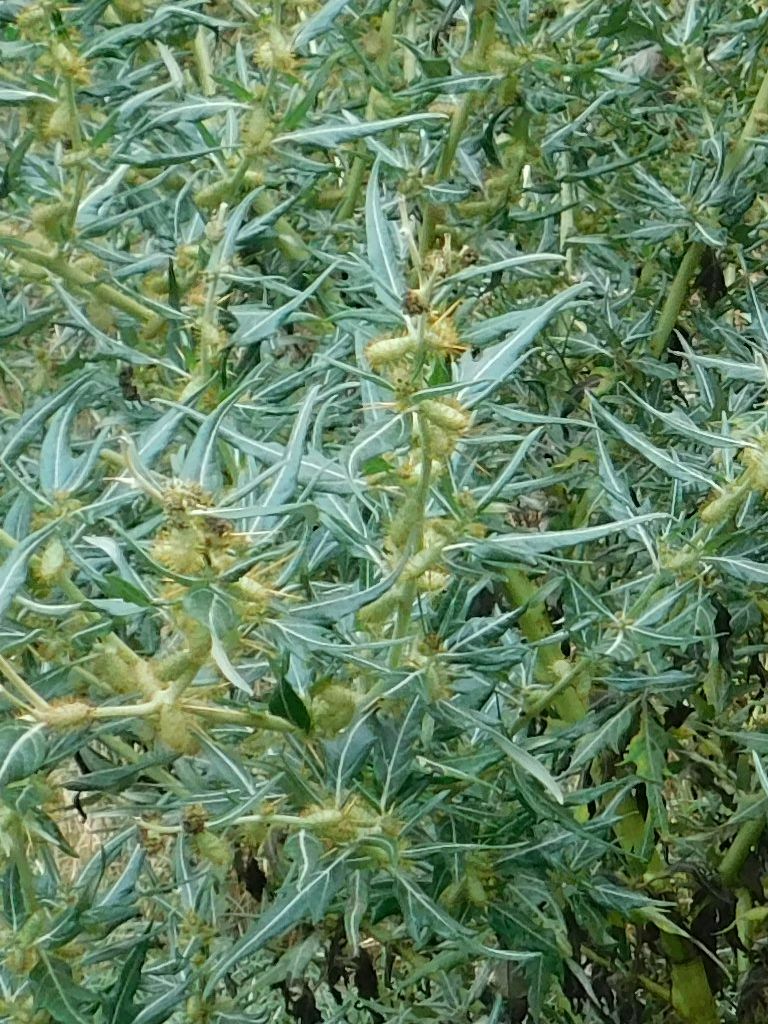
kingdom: Plantae
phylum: Tracheophyta
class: Magnoliopsida
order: Asterales
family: Asteraceae
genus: Xanthium
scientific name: Xanthium spinosum
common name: Spiny cocklebur
